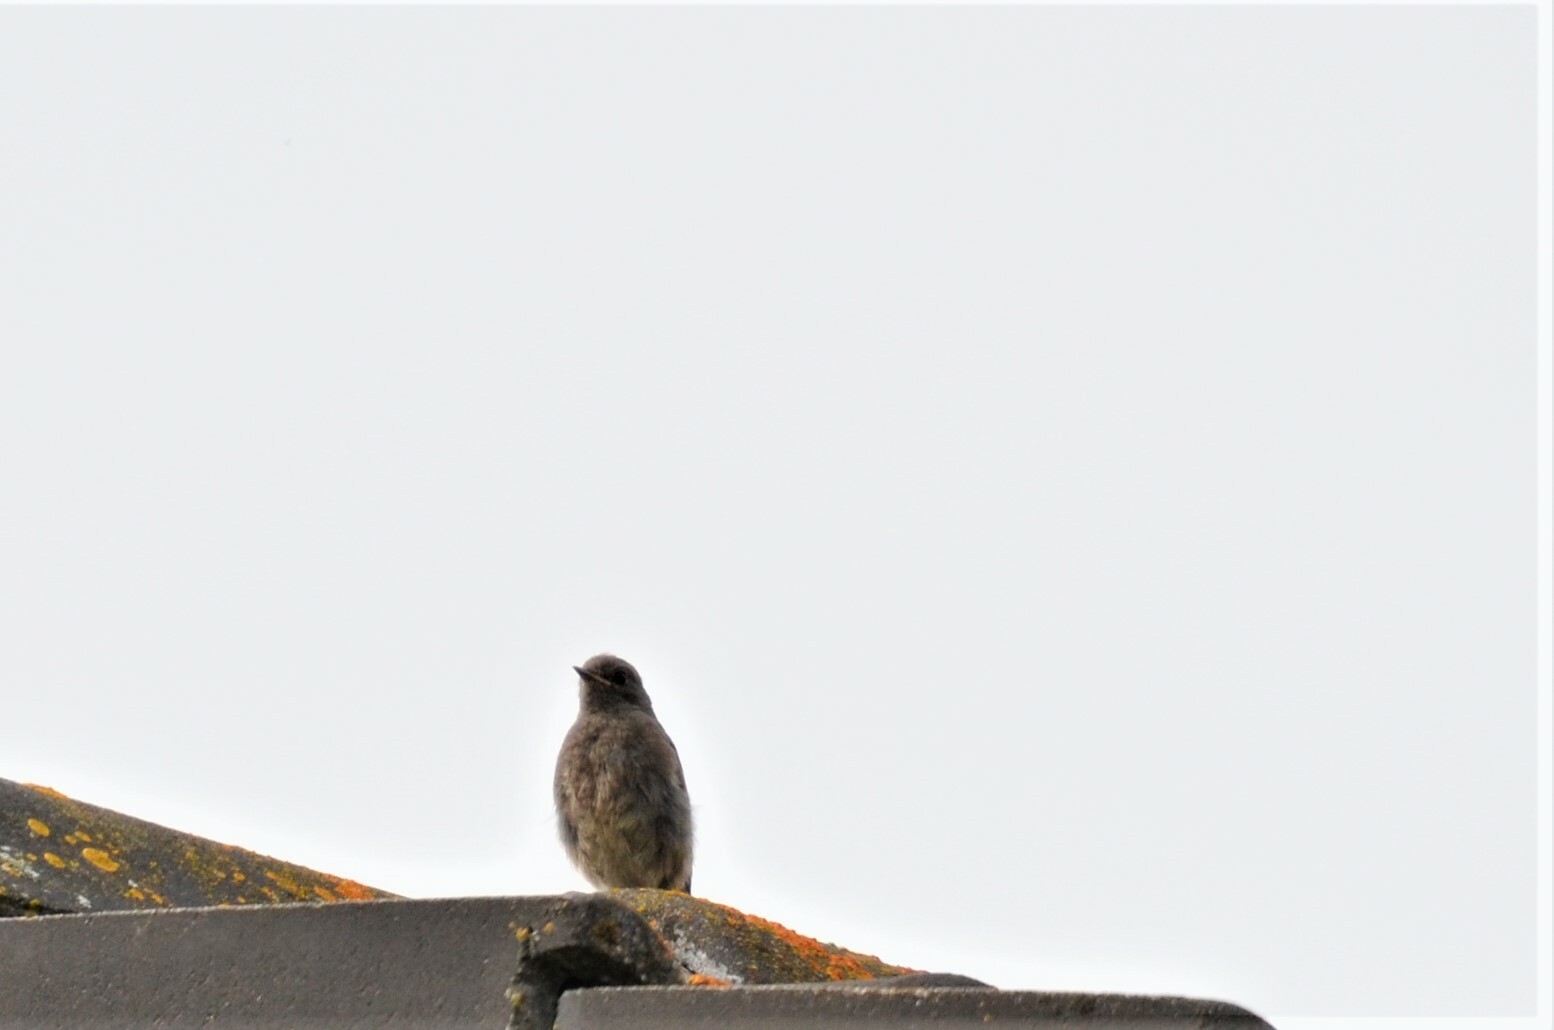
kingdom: Animalia
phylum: Chordata
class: Aves
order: Passeriformes
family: Muscicapidae
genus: Phoenicurus
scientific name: Phoenicurus ochruros
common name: Black redstart
